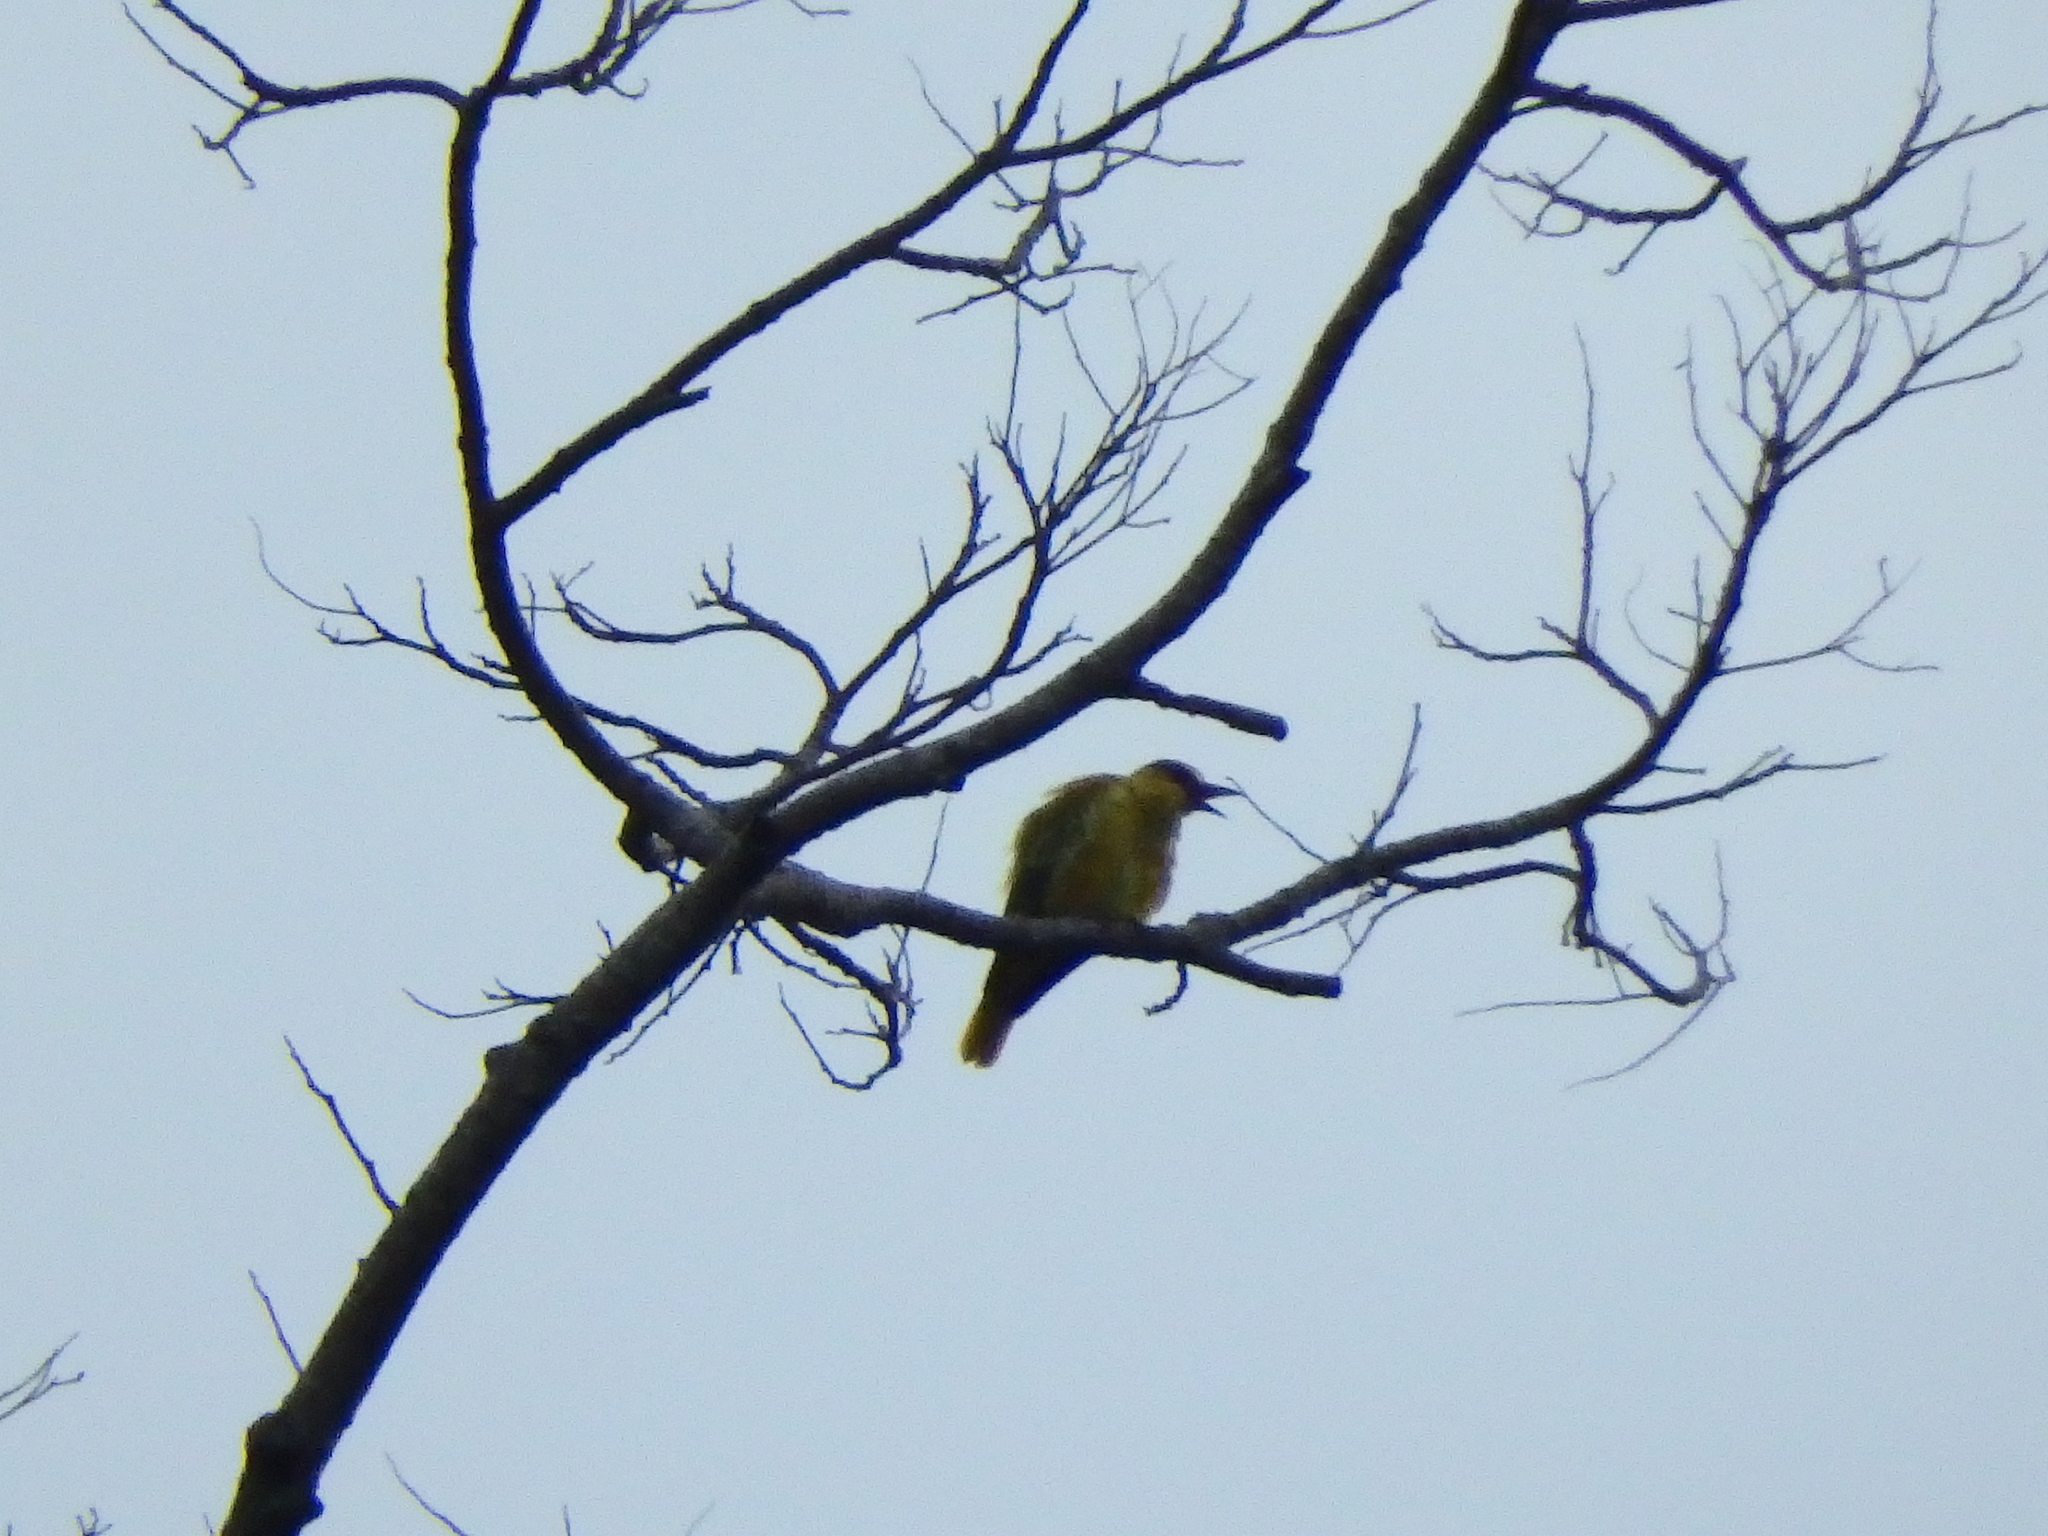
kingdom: Animalia
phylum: Chordata
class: Aves
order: Passeriformes
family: Oriolidae
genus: Oriolus
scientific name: Oriolus chinensis
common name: Black-naped oriole
